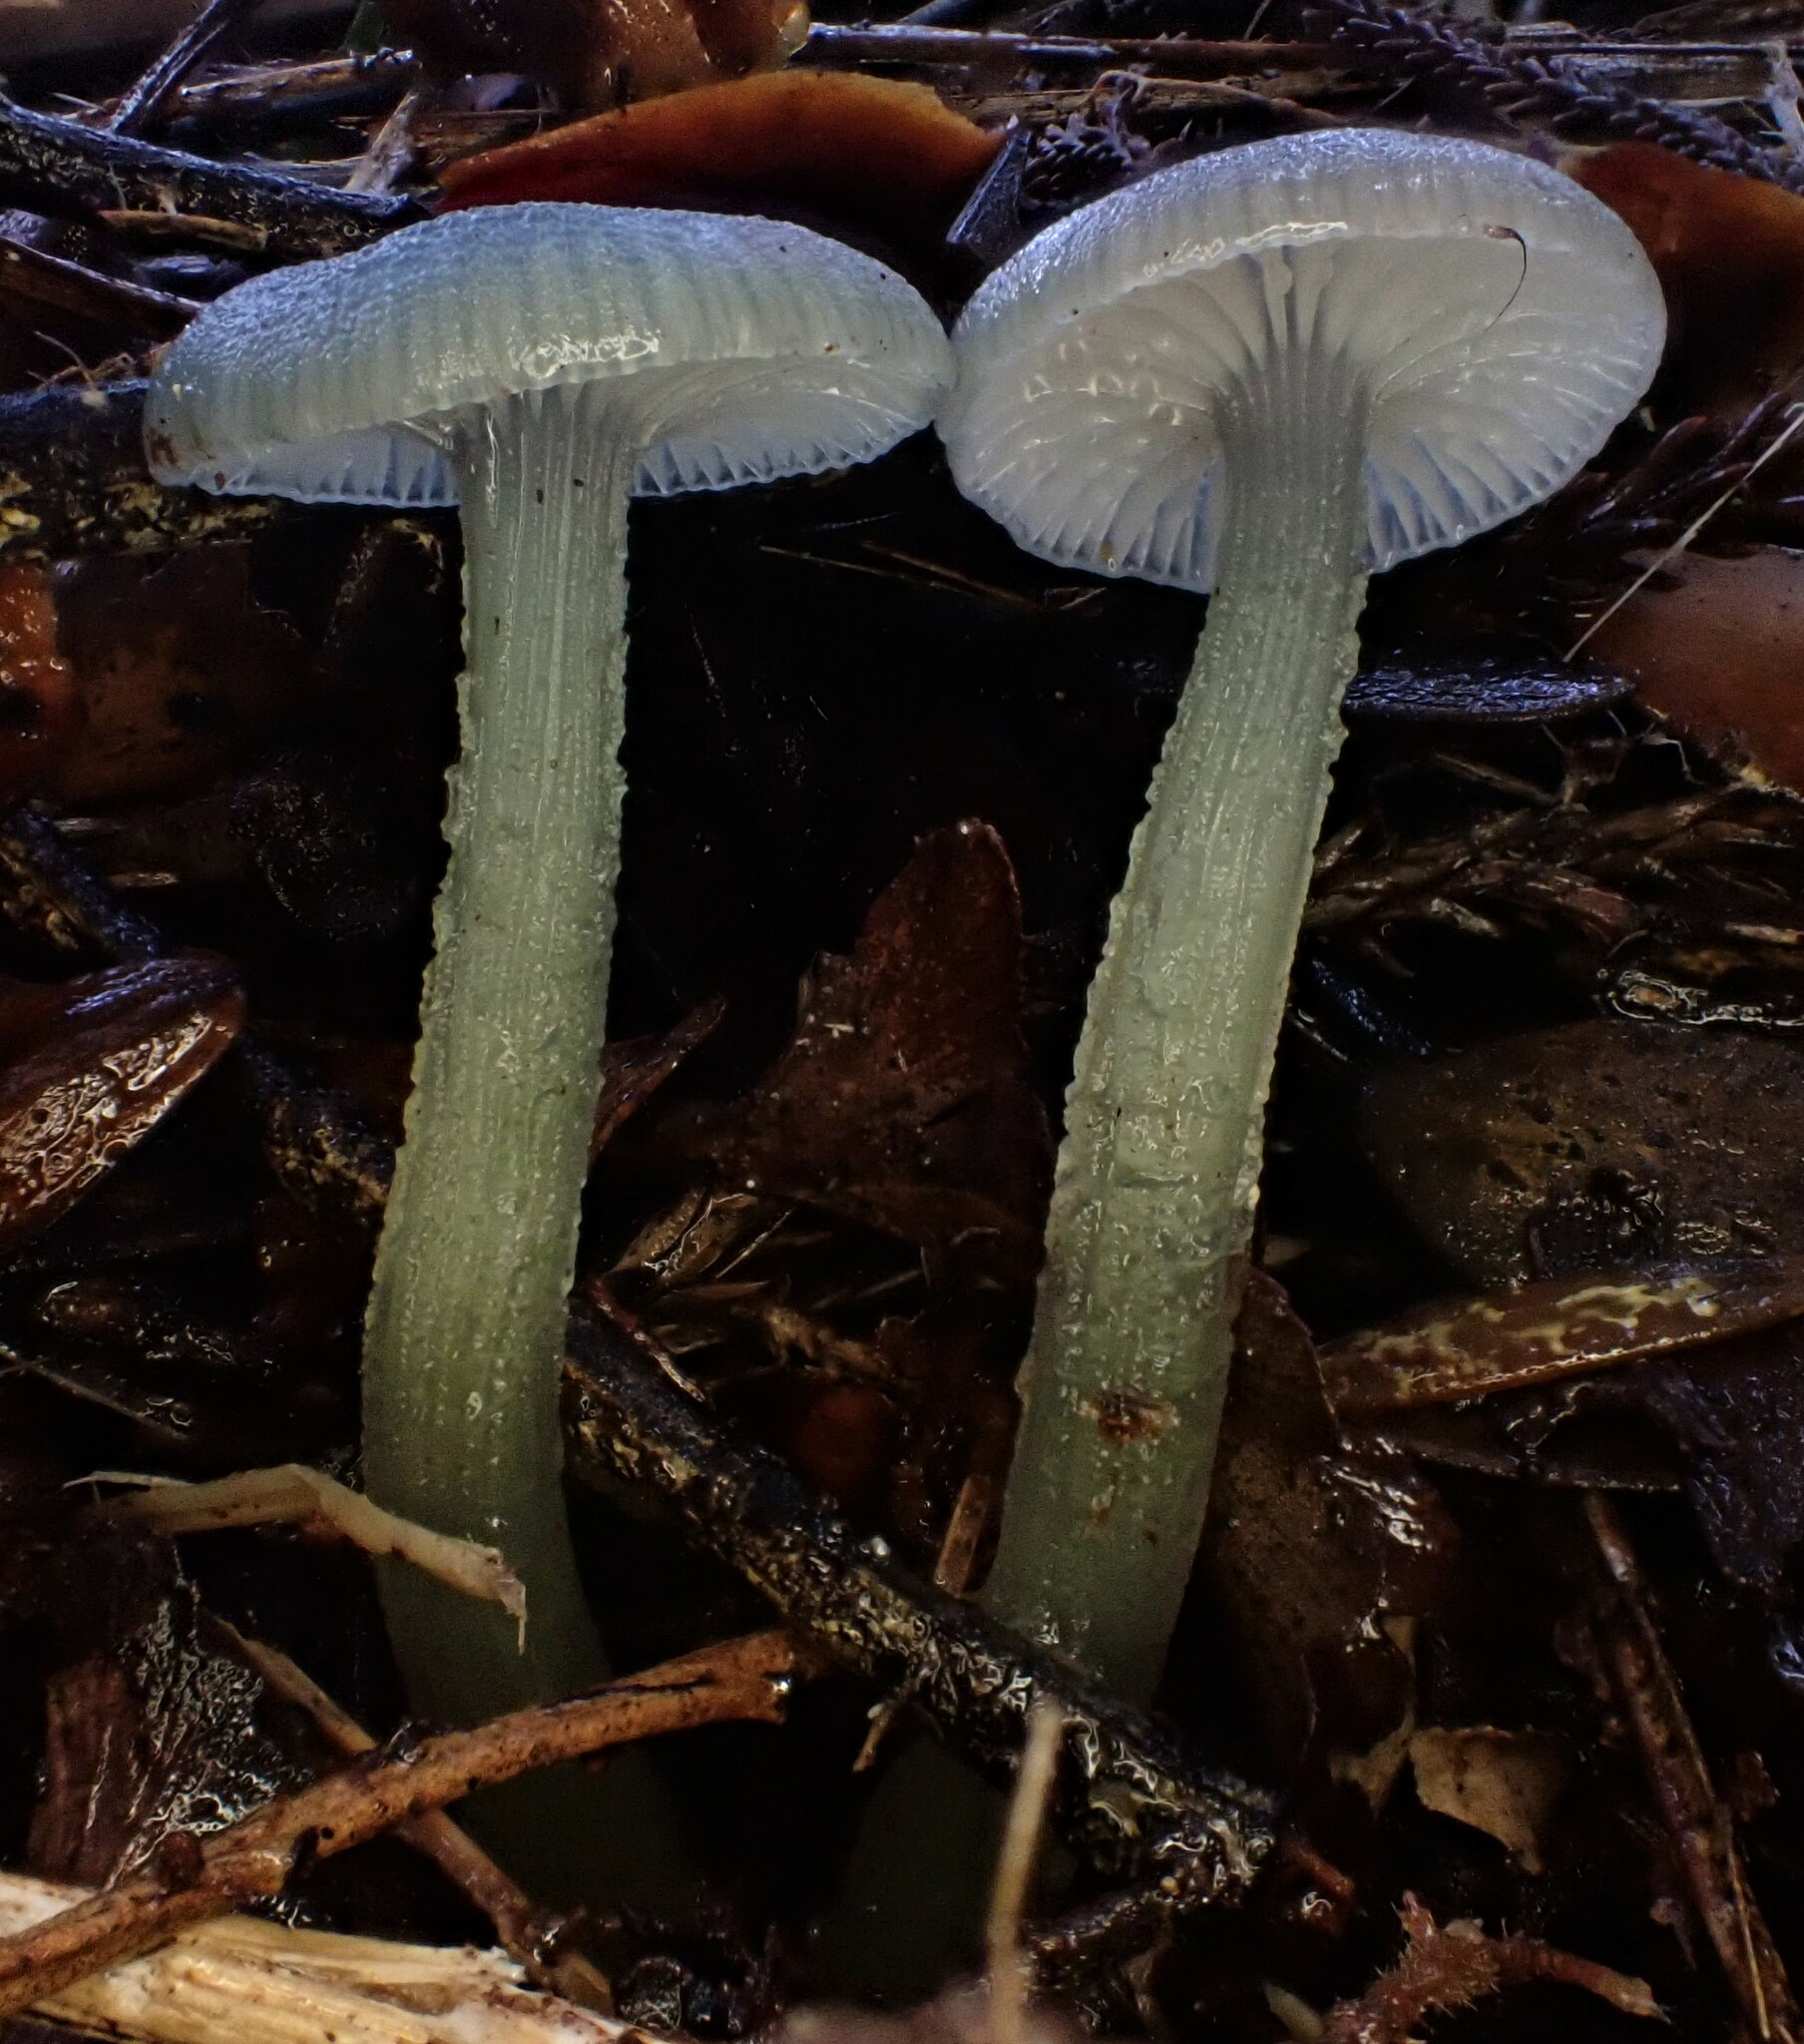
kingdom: Fungi
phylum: Basidiomycota
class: Agaricomycetes
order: Agaricales
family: Hygrophoraceae
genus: Gliophorus
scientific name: Gliophorus lilacipes
